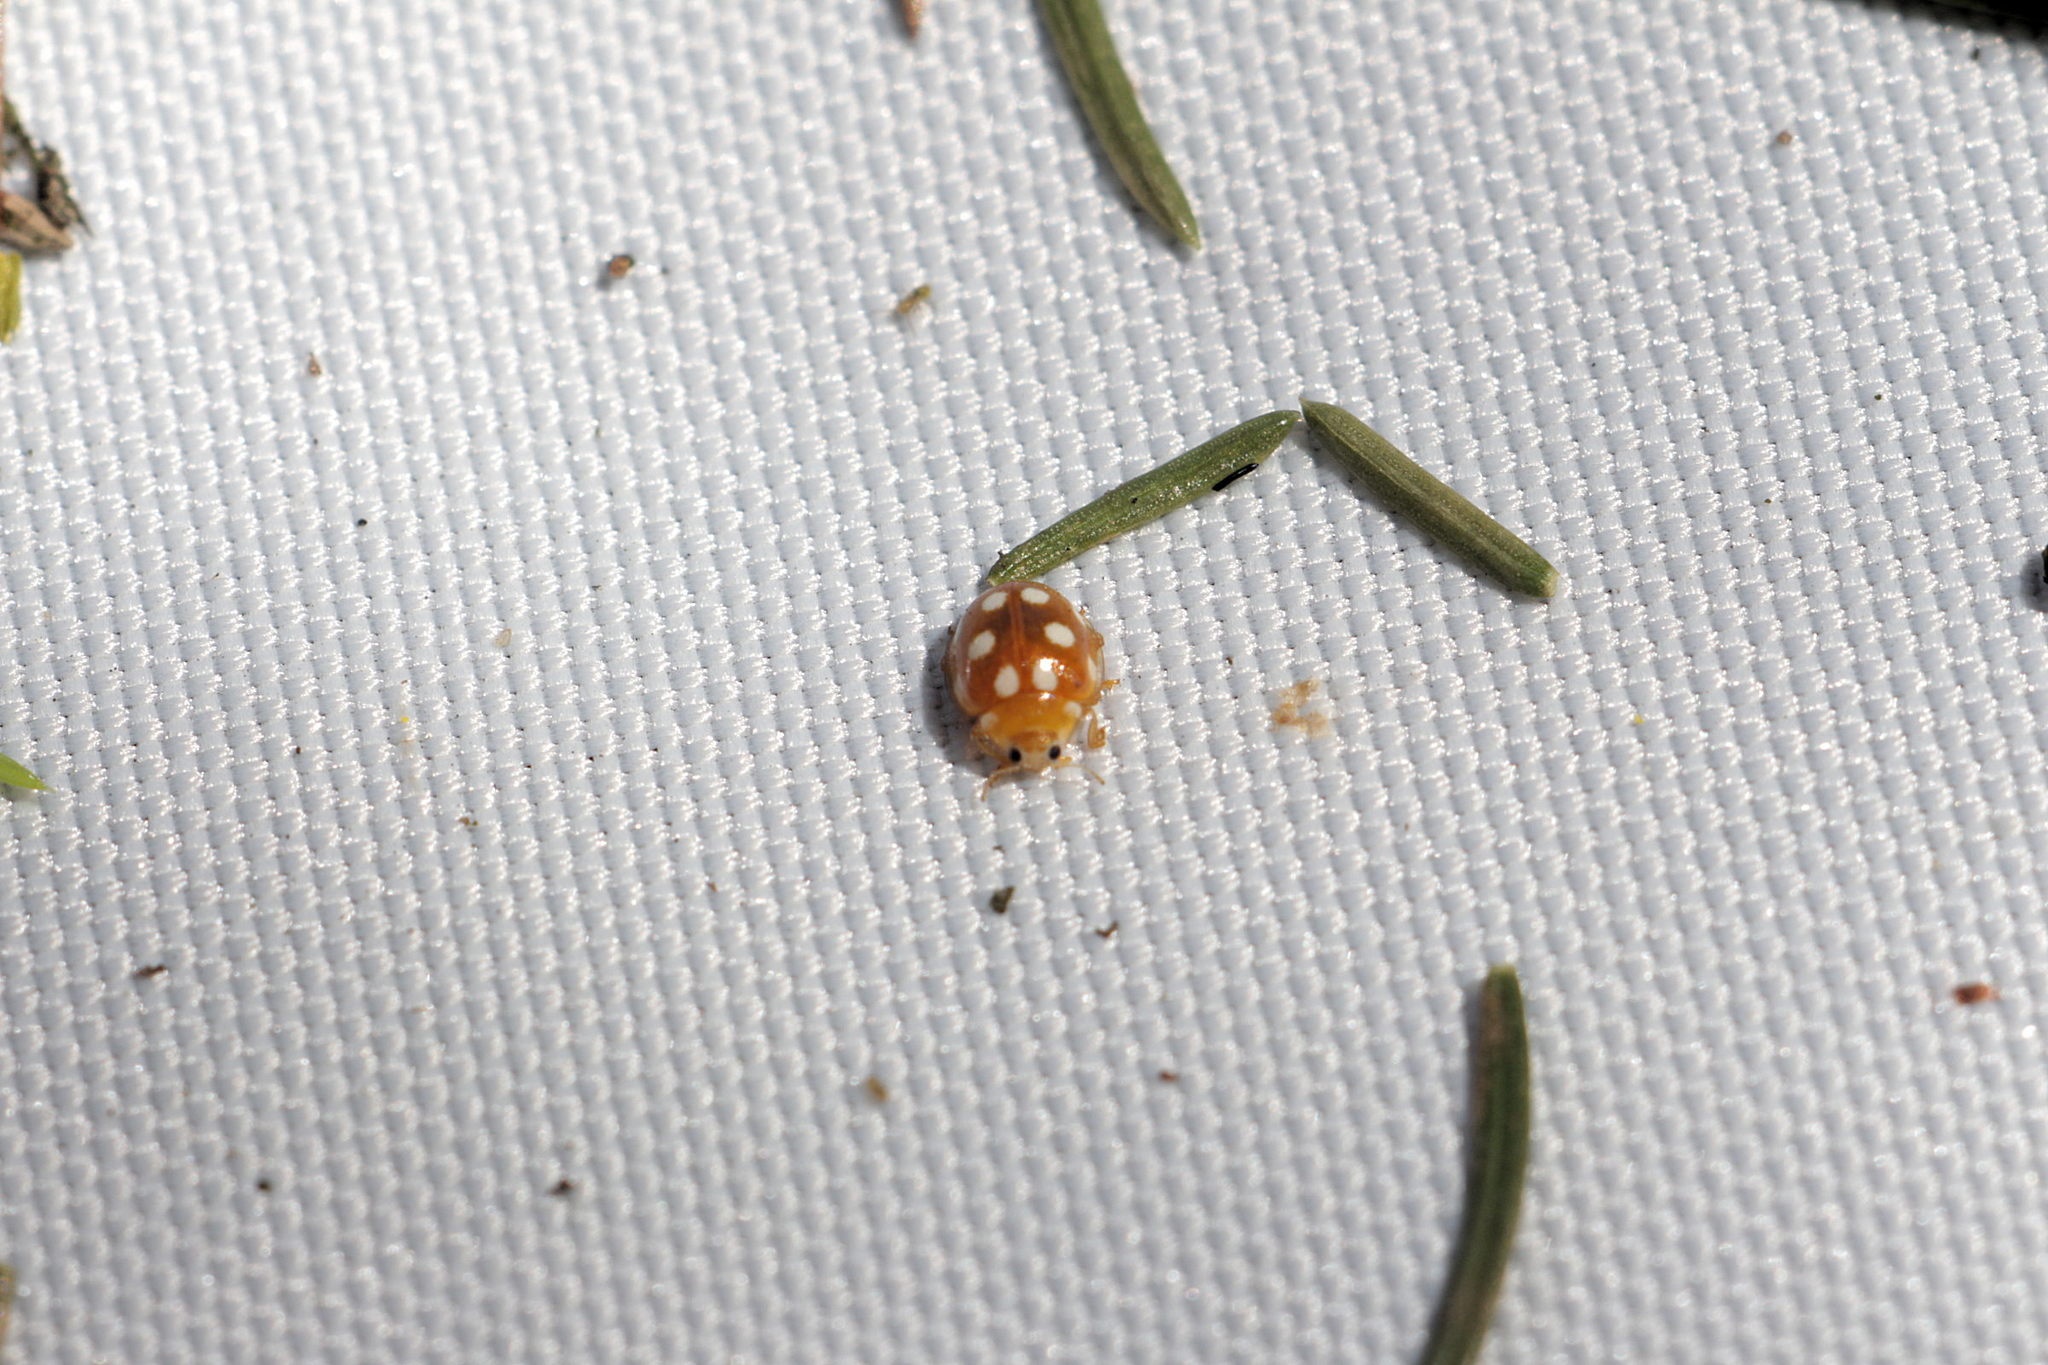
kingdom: Animalia
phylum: Arthropoda
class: Insecta
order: Coleoptera
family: Coccinellidae
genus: Vibidia
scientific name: Vibidia duodecimguttata
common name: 12-spot ladybird
